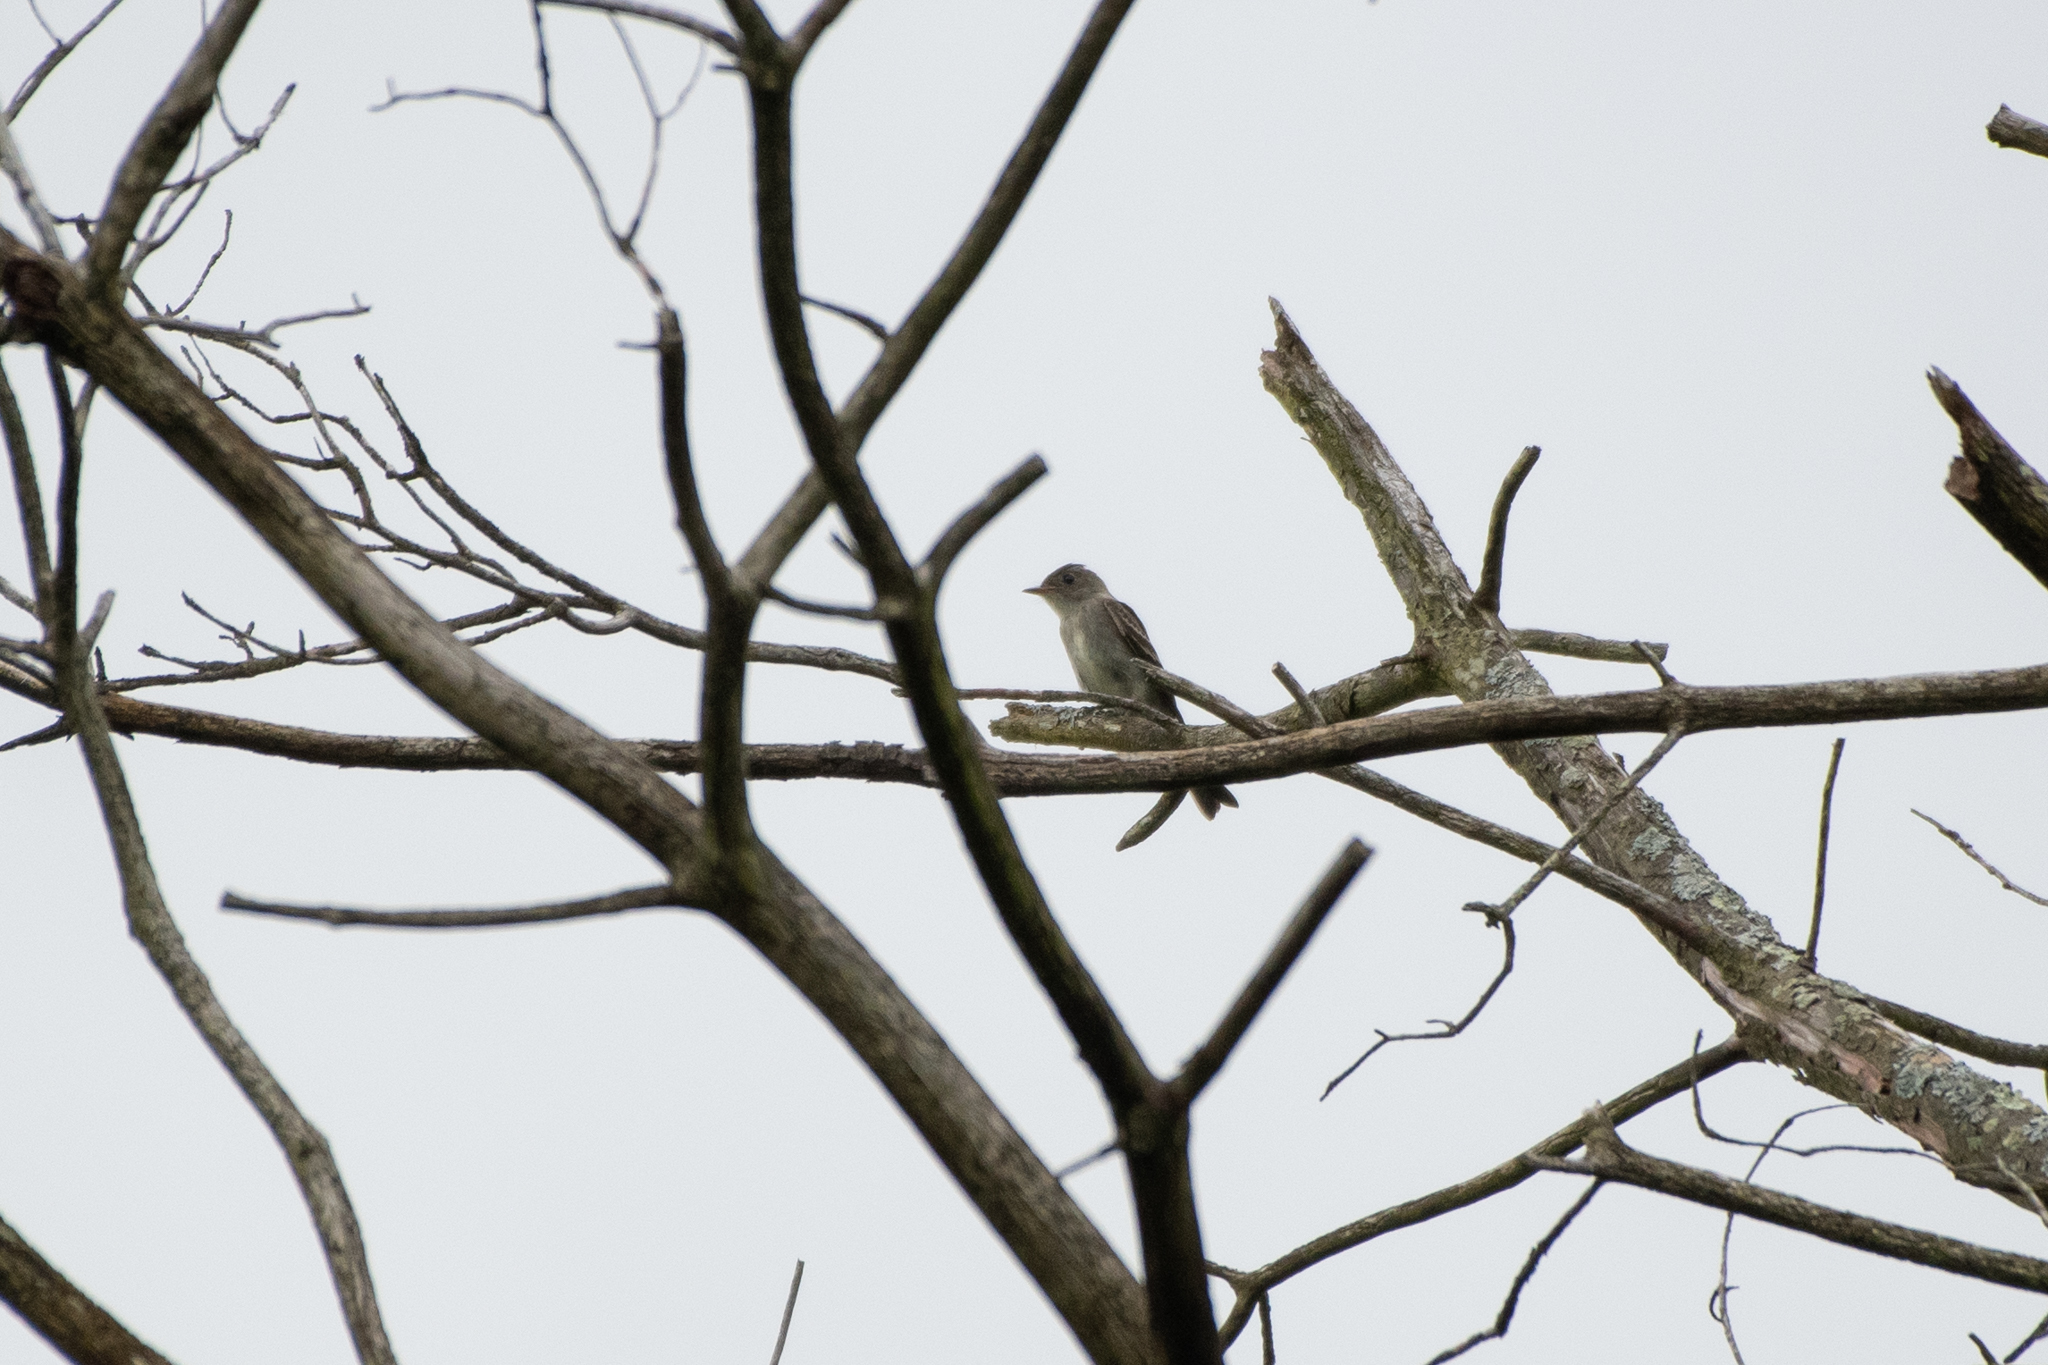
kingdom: Animalia
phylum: Chordata
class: Aves
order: Passeriformes
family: Tyrannidae
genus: Contopus
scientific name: Contopus virens
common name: Eastern wood-pewee
